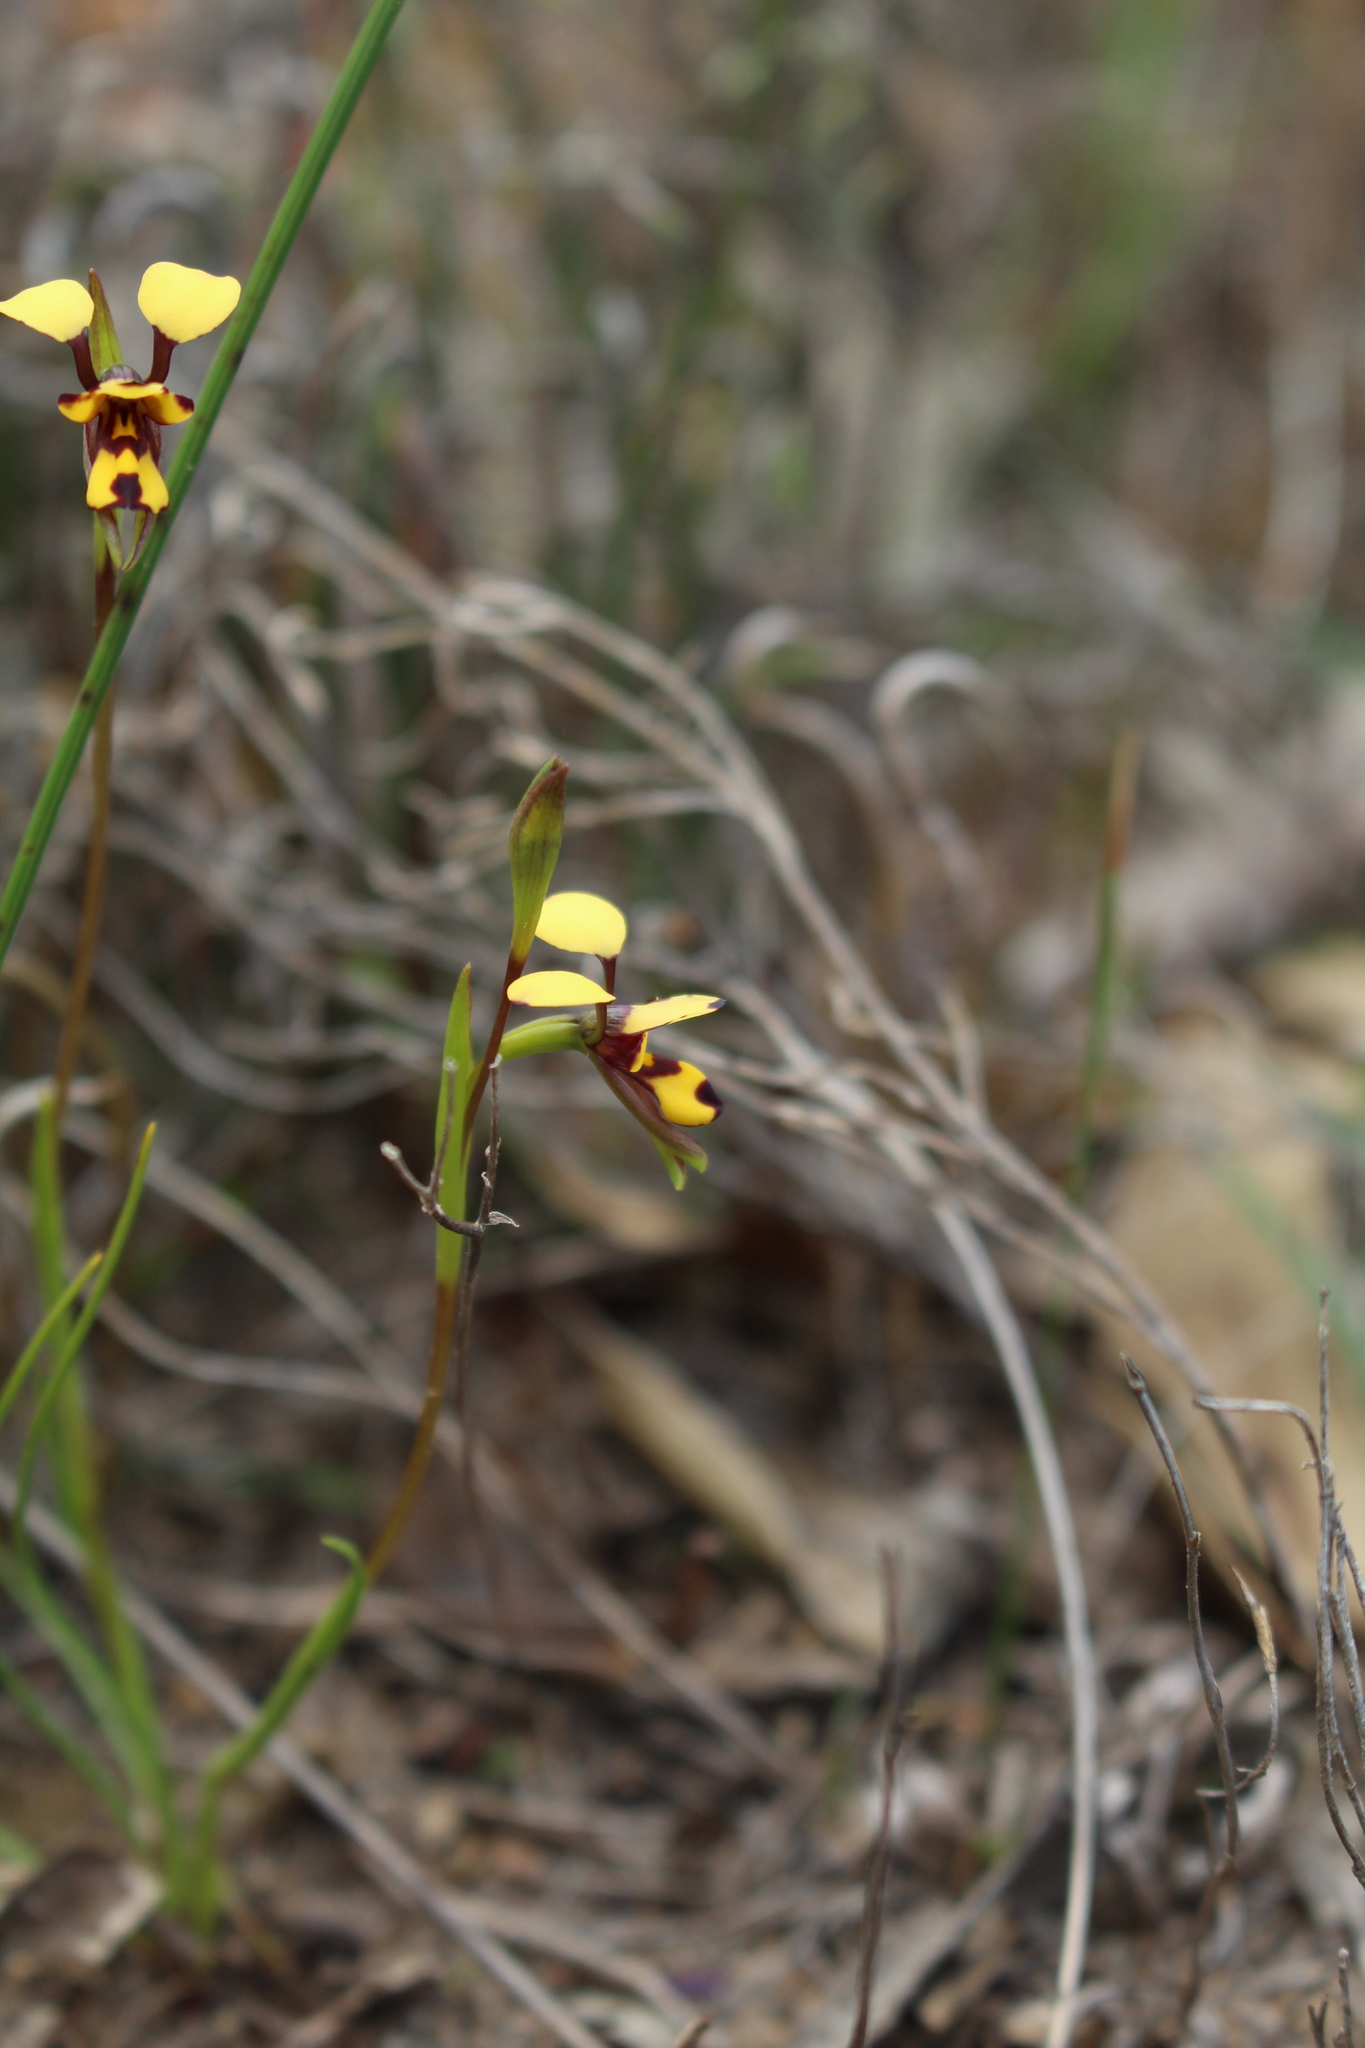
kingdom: Plantae
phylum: Tracheophyta
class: Liliopsida
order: Asparagales
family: Orchidaceae
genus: Diuris
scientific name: Diuris laxiflora
